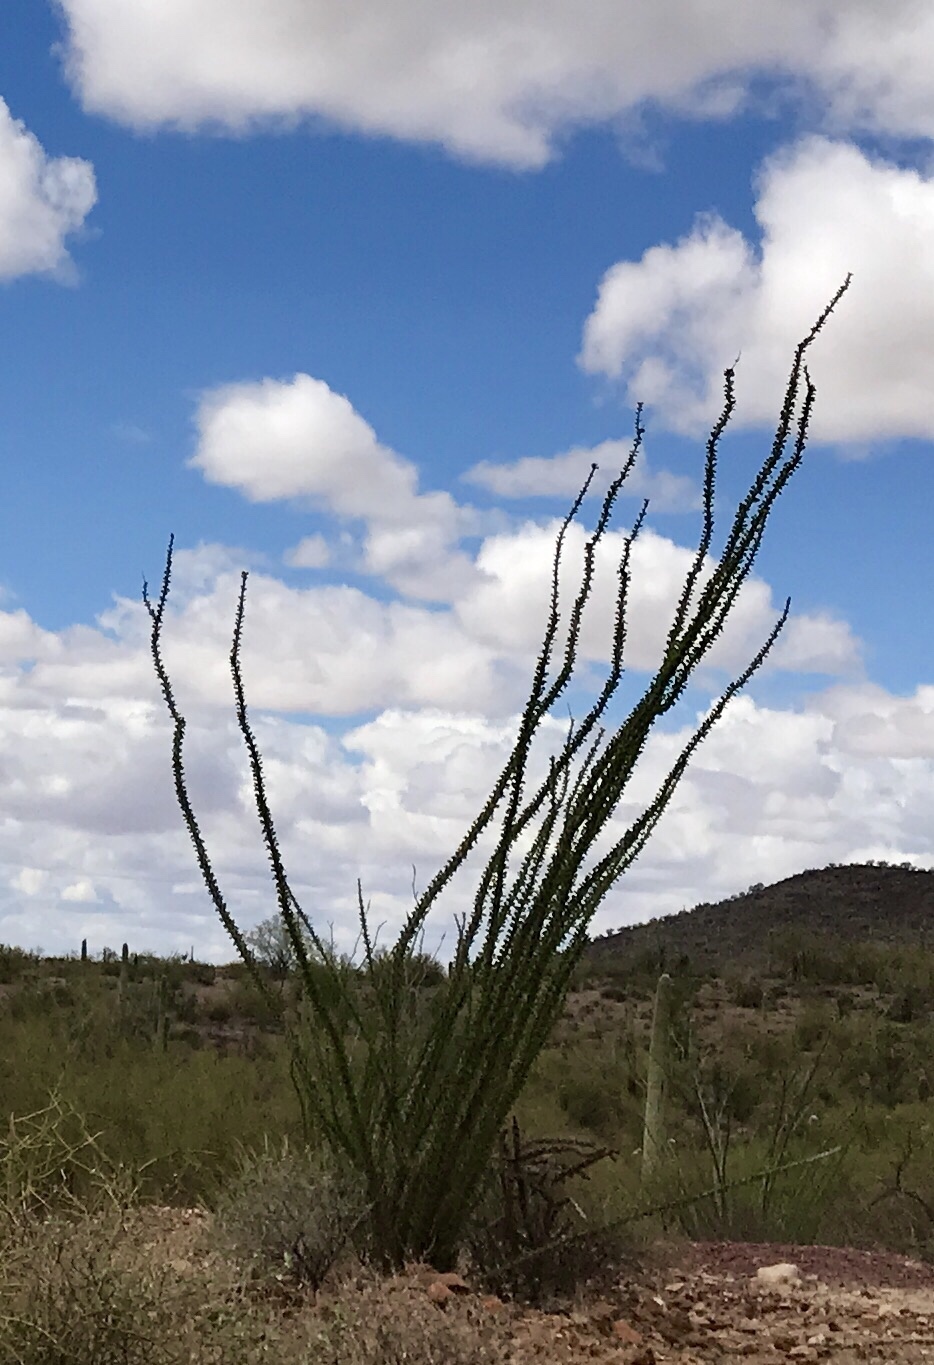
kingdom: Plantae
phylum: Tracheophyta
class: Magnoliopsida
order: Ericales
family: Fouquieriaceae
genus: Fouquieria
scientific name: Fouquieria splendens
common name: Vine-cactus
